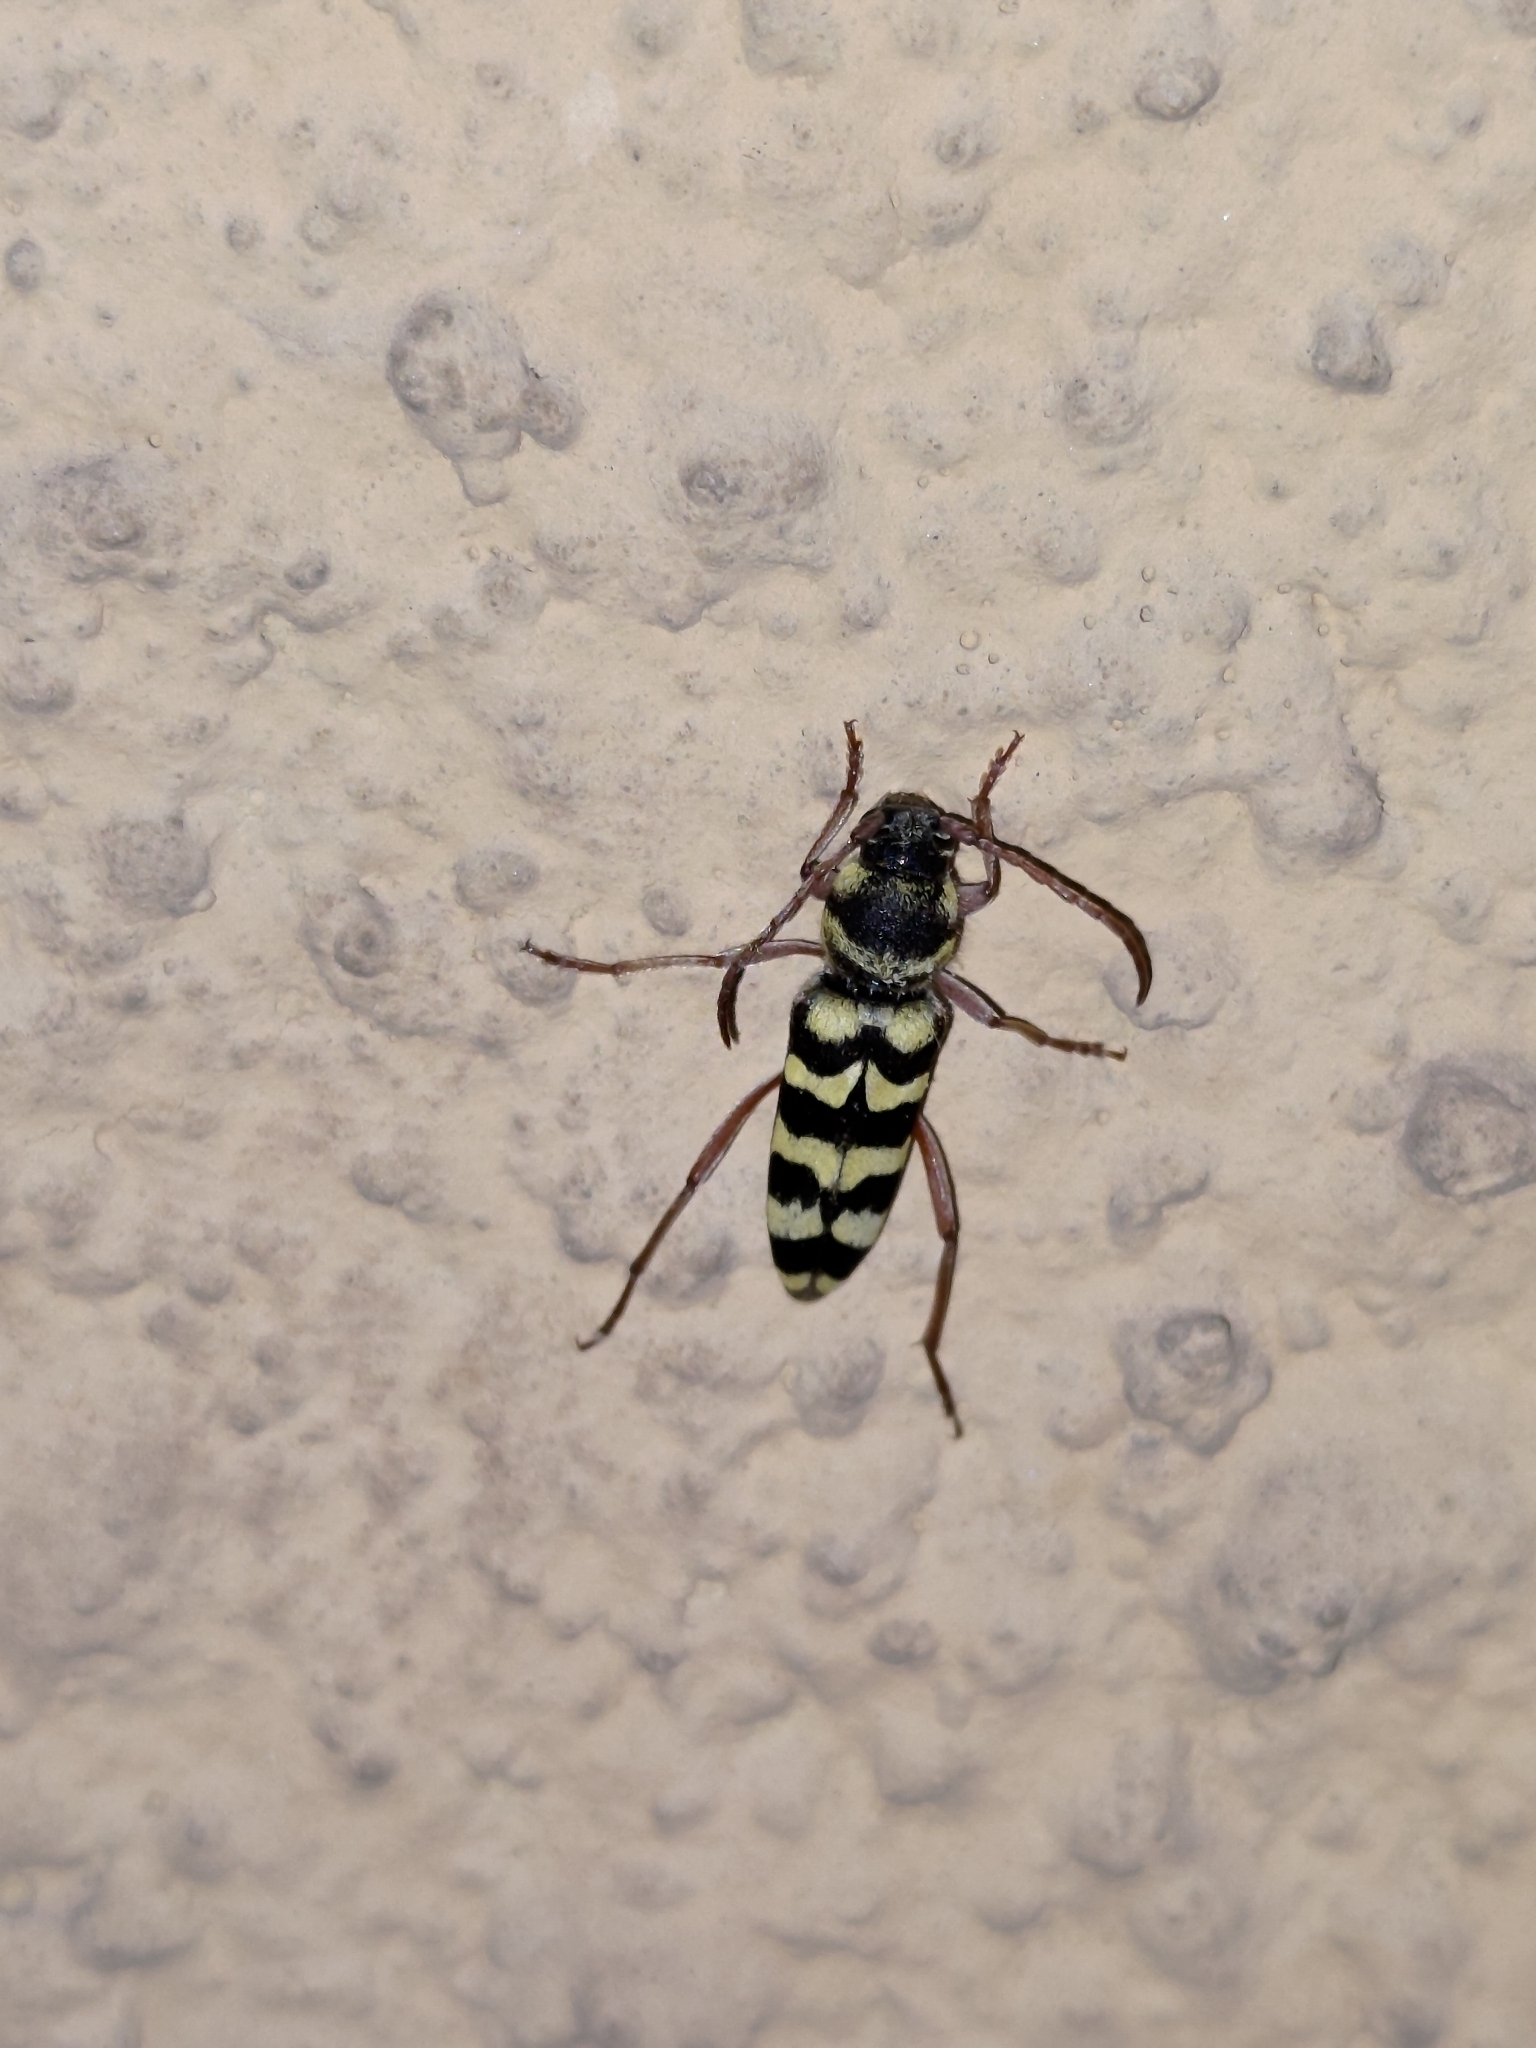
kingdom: Animalia
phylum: Arthropoda
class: Insecta
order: Coleoptera
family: Cerambycidae
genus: Plagionotus
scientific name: Plagionotus floralis
